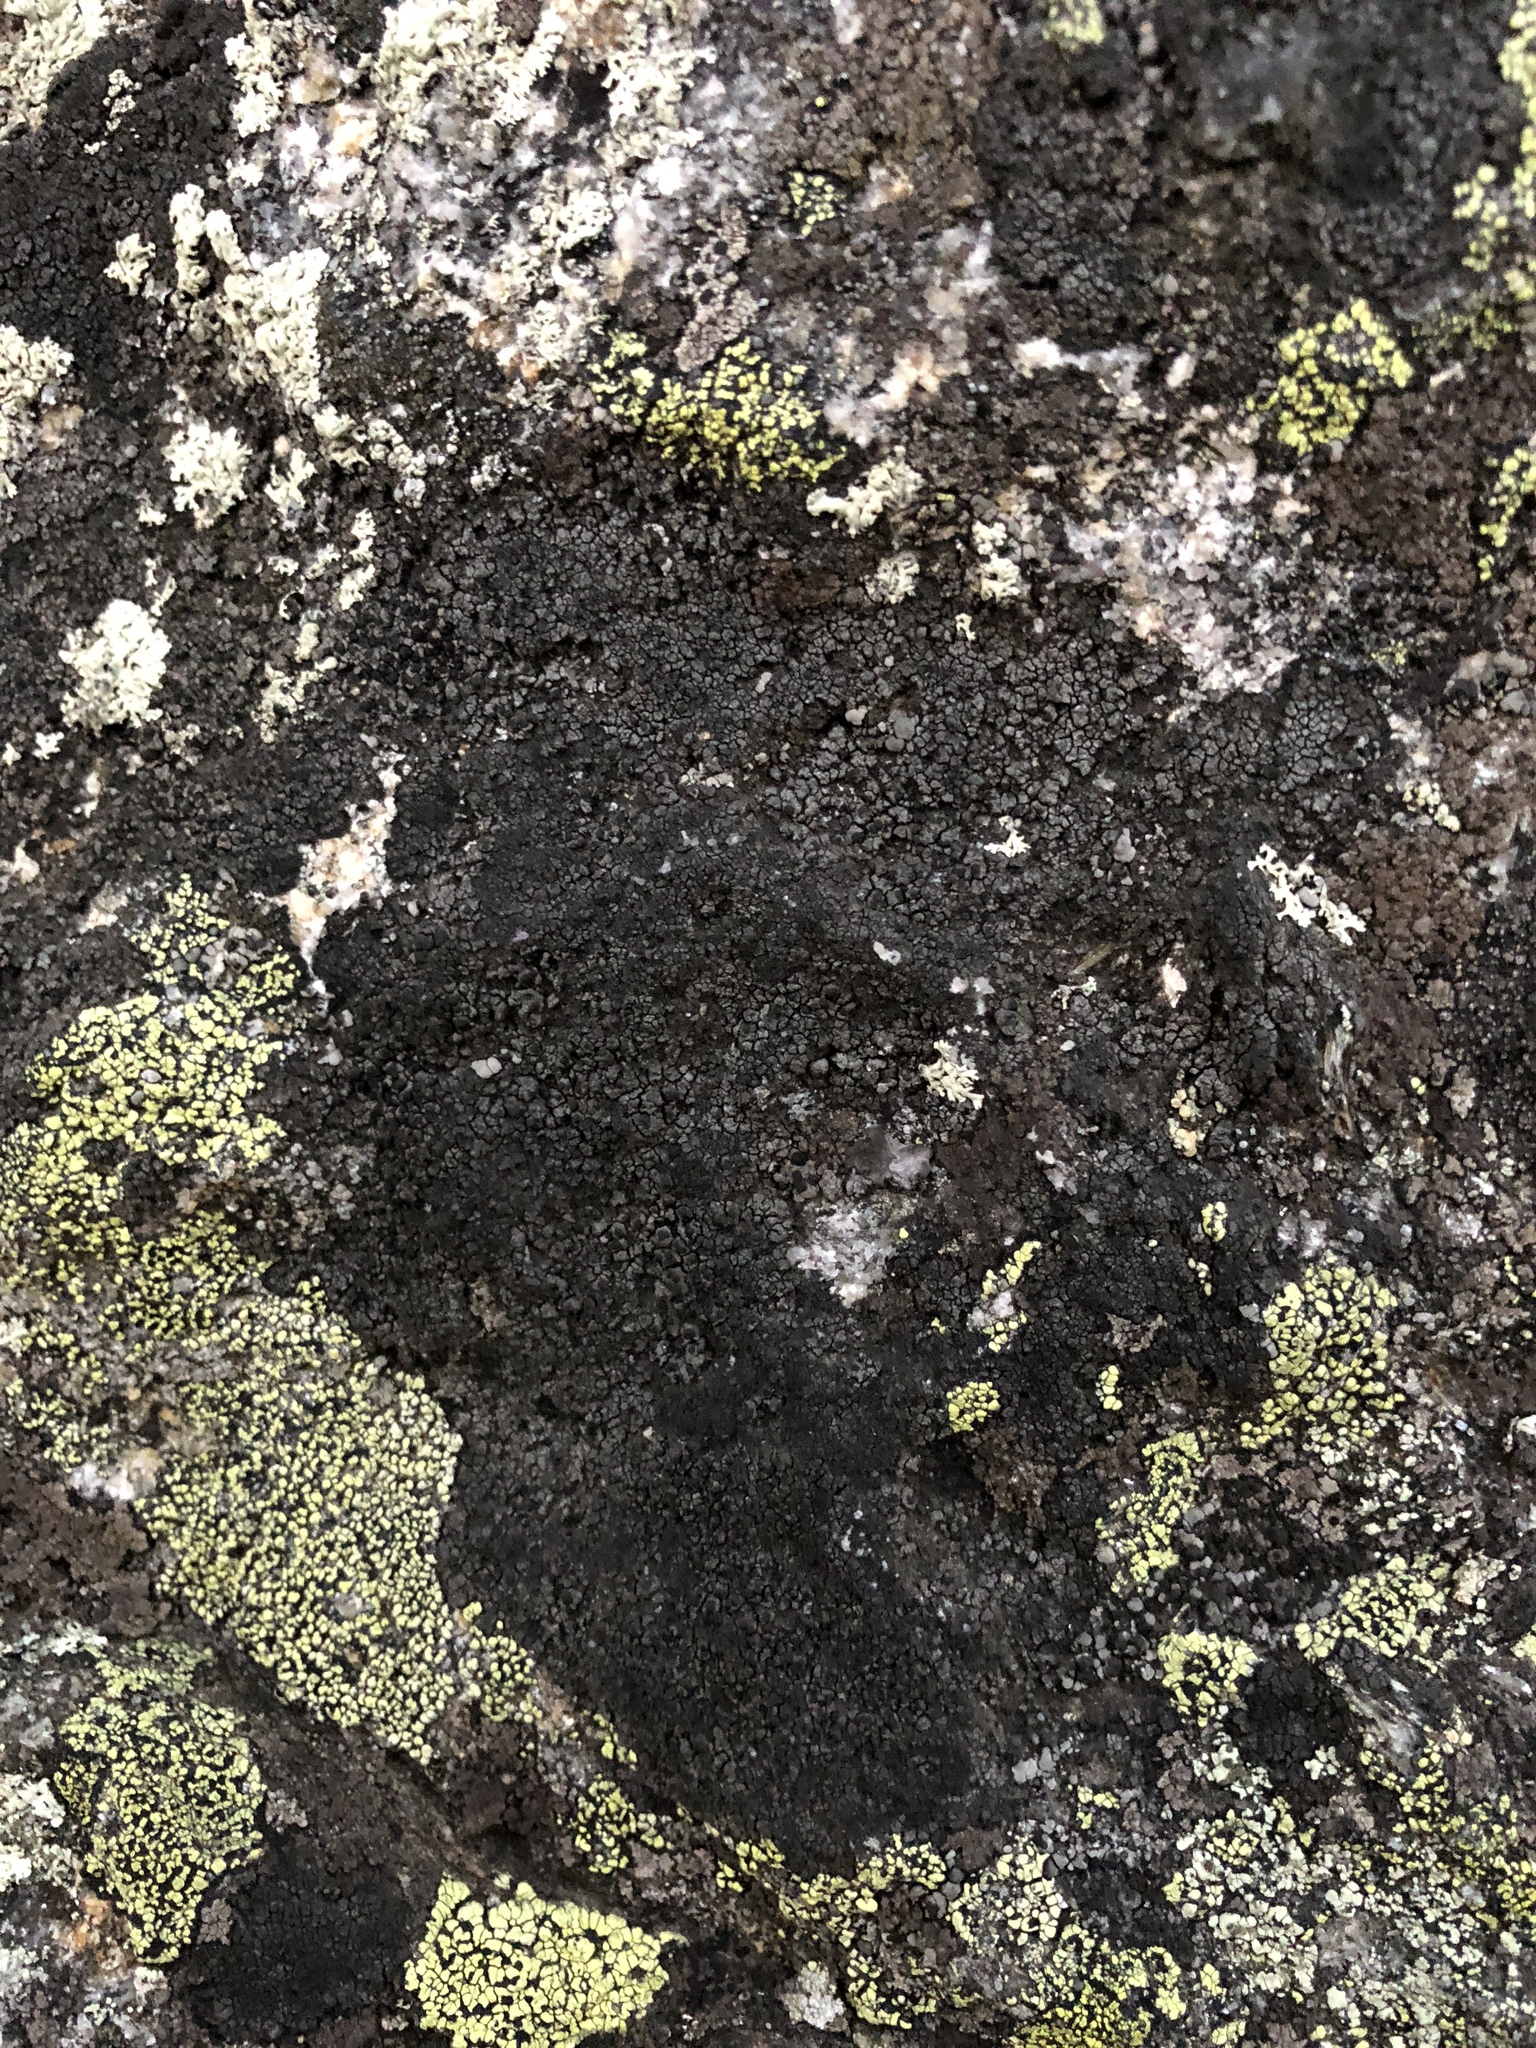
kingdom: Fungi
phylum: Ascomycota
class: Lecanoromycetes
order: Umbilicariales
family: Fuscideaceae
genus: Orphniospora
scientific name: Orphniospora moriopsis
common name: Black-on-black crust lichen
